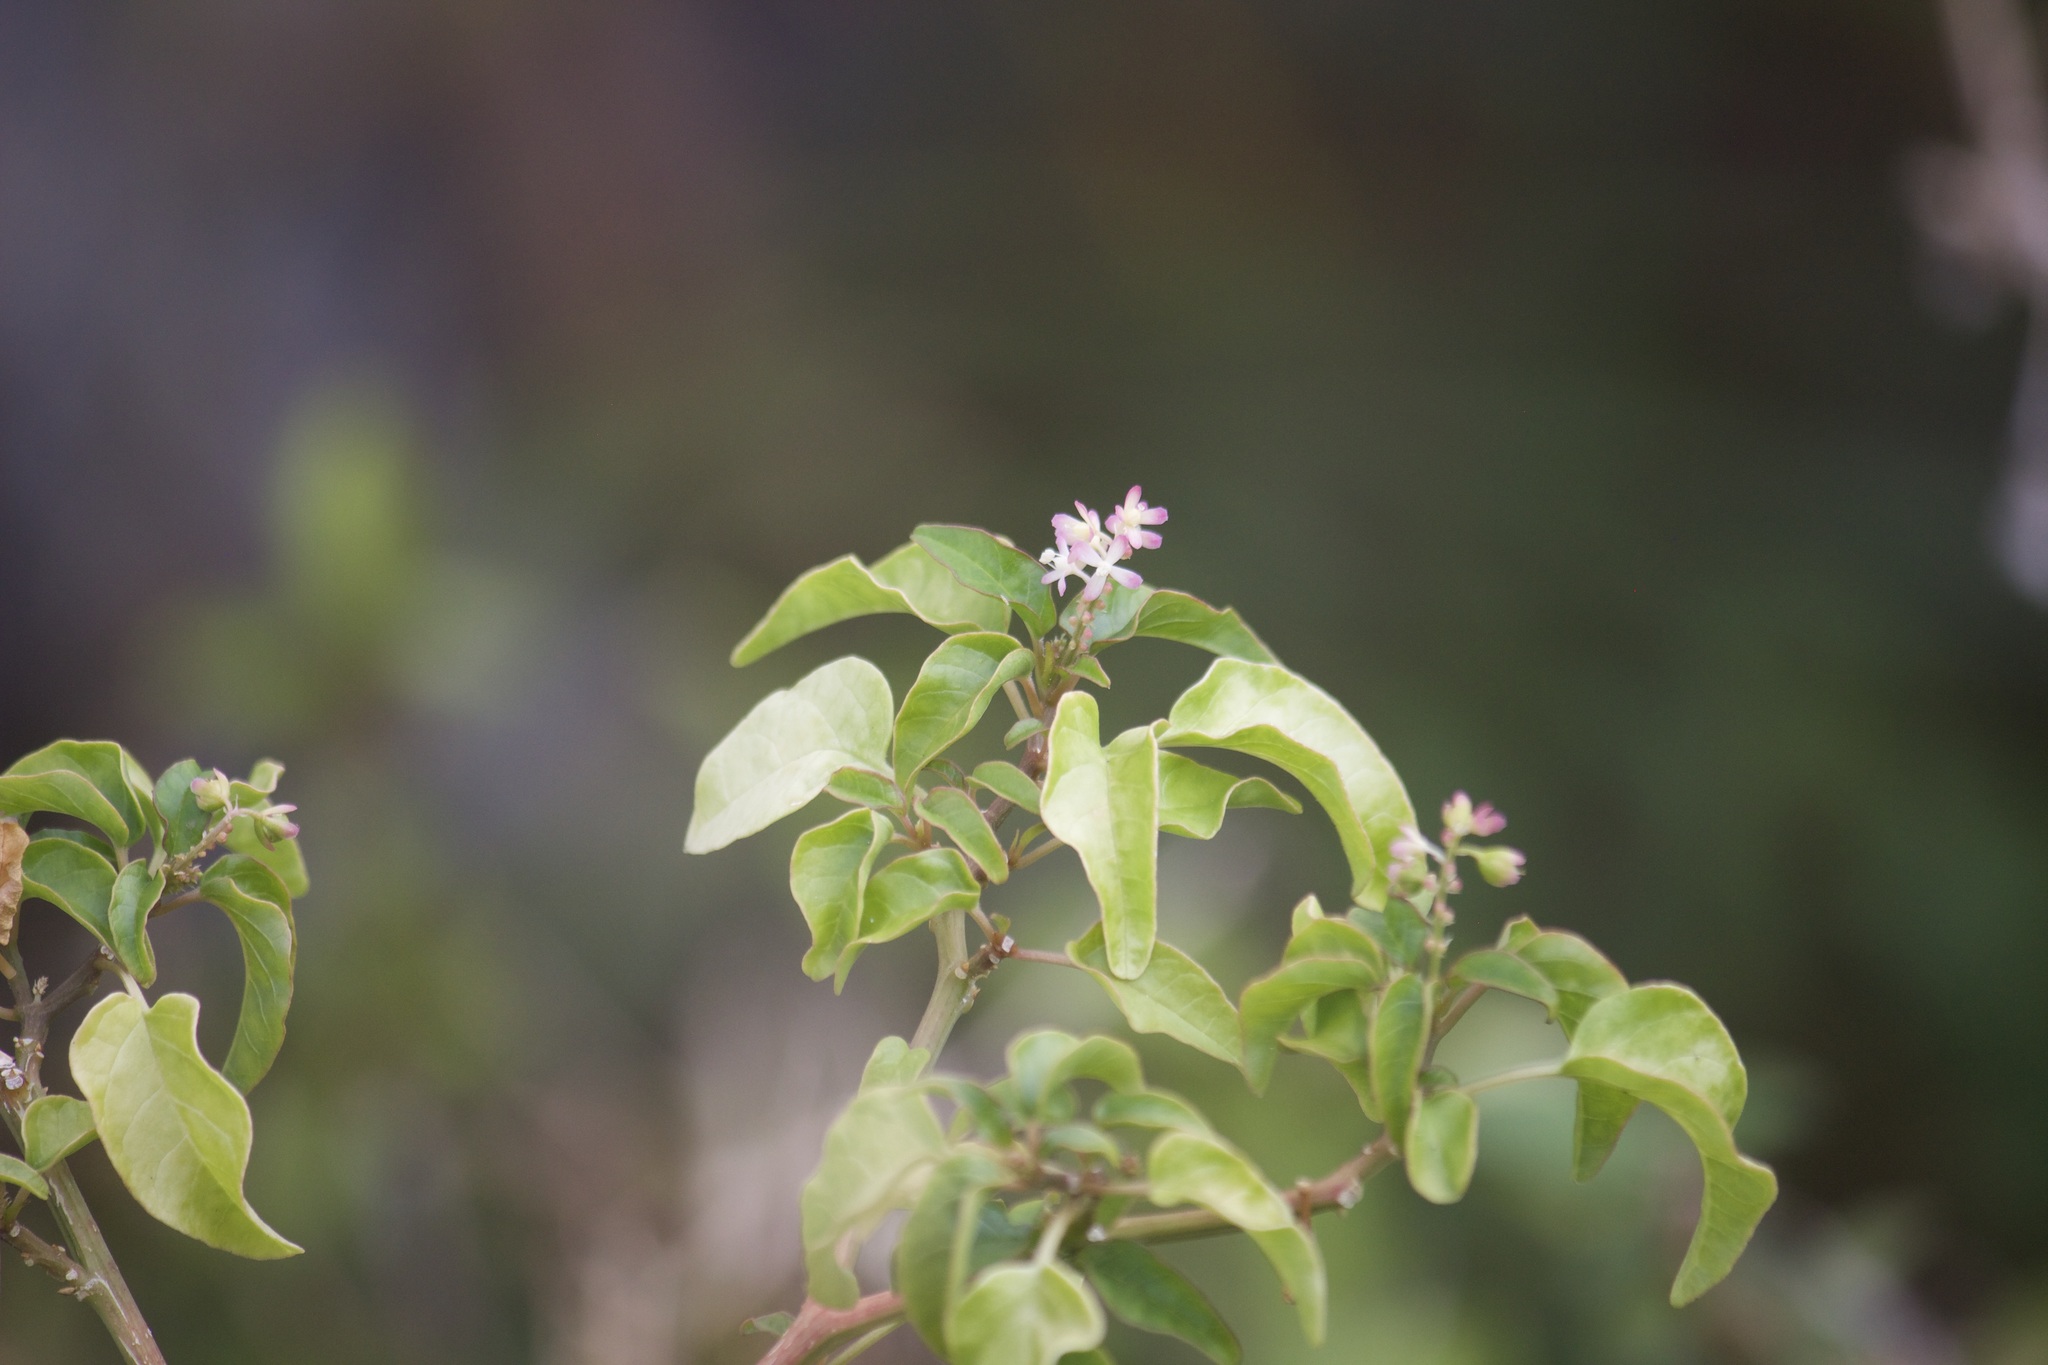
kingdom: Plantae
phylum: Tracheophyta
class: Magnoliopsida
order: Caryophyllales
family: Phytolaccaceae
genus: Rivina
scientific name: Rivina humilis
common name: Rougeplant
